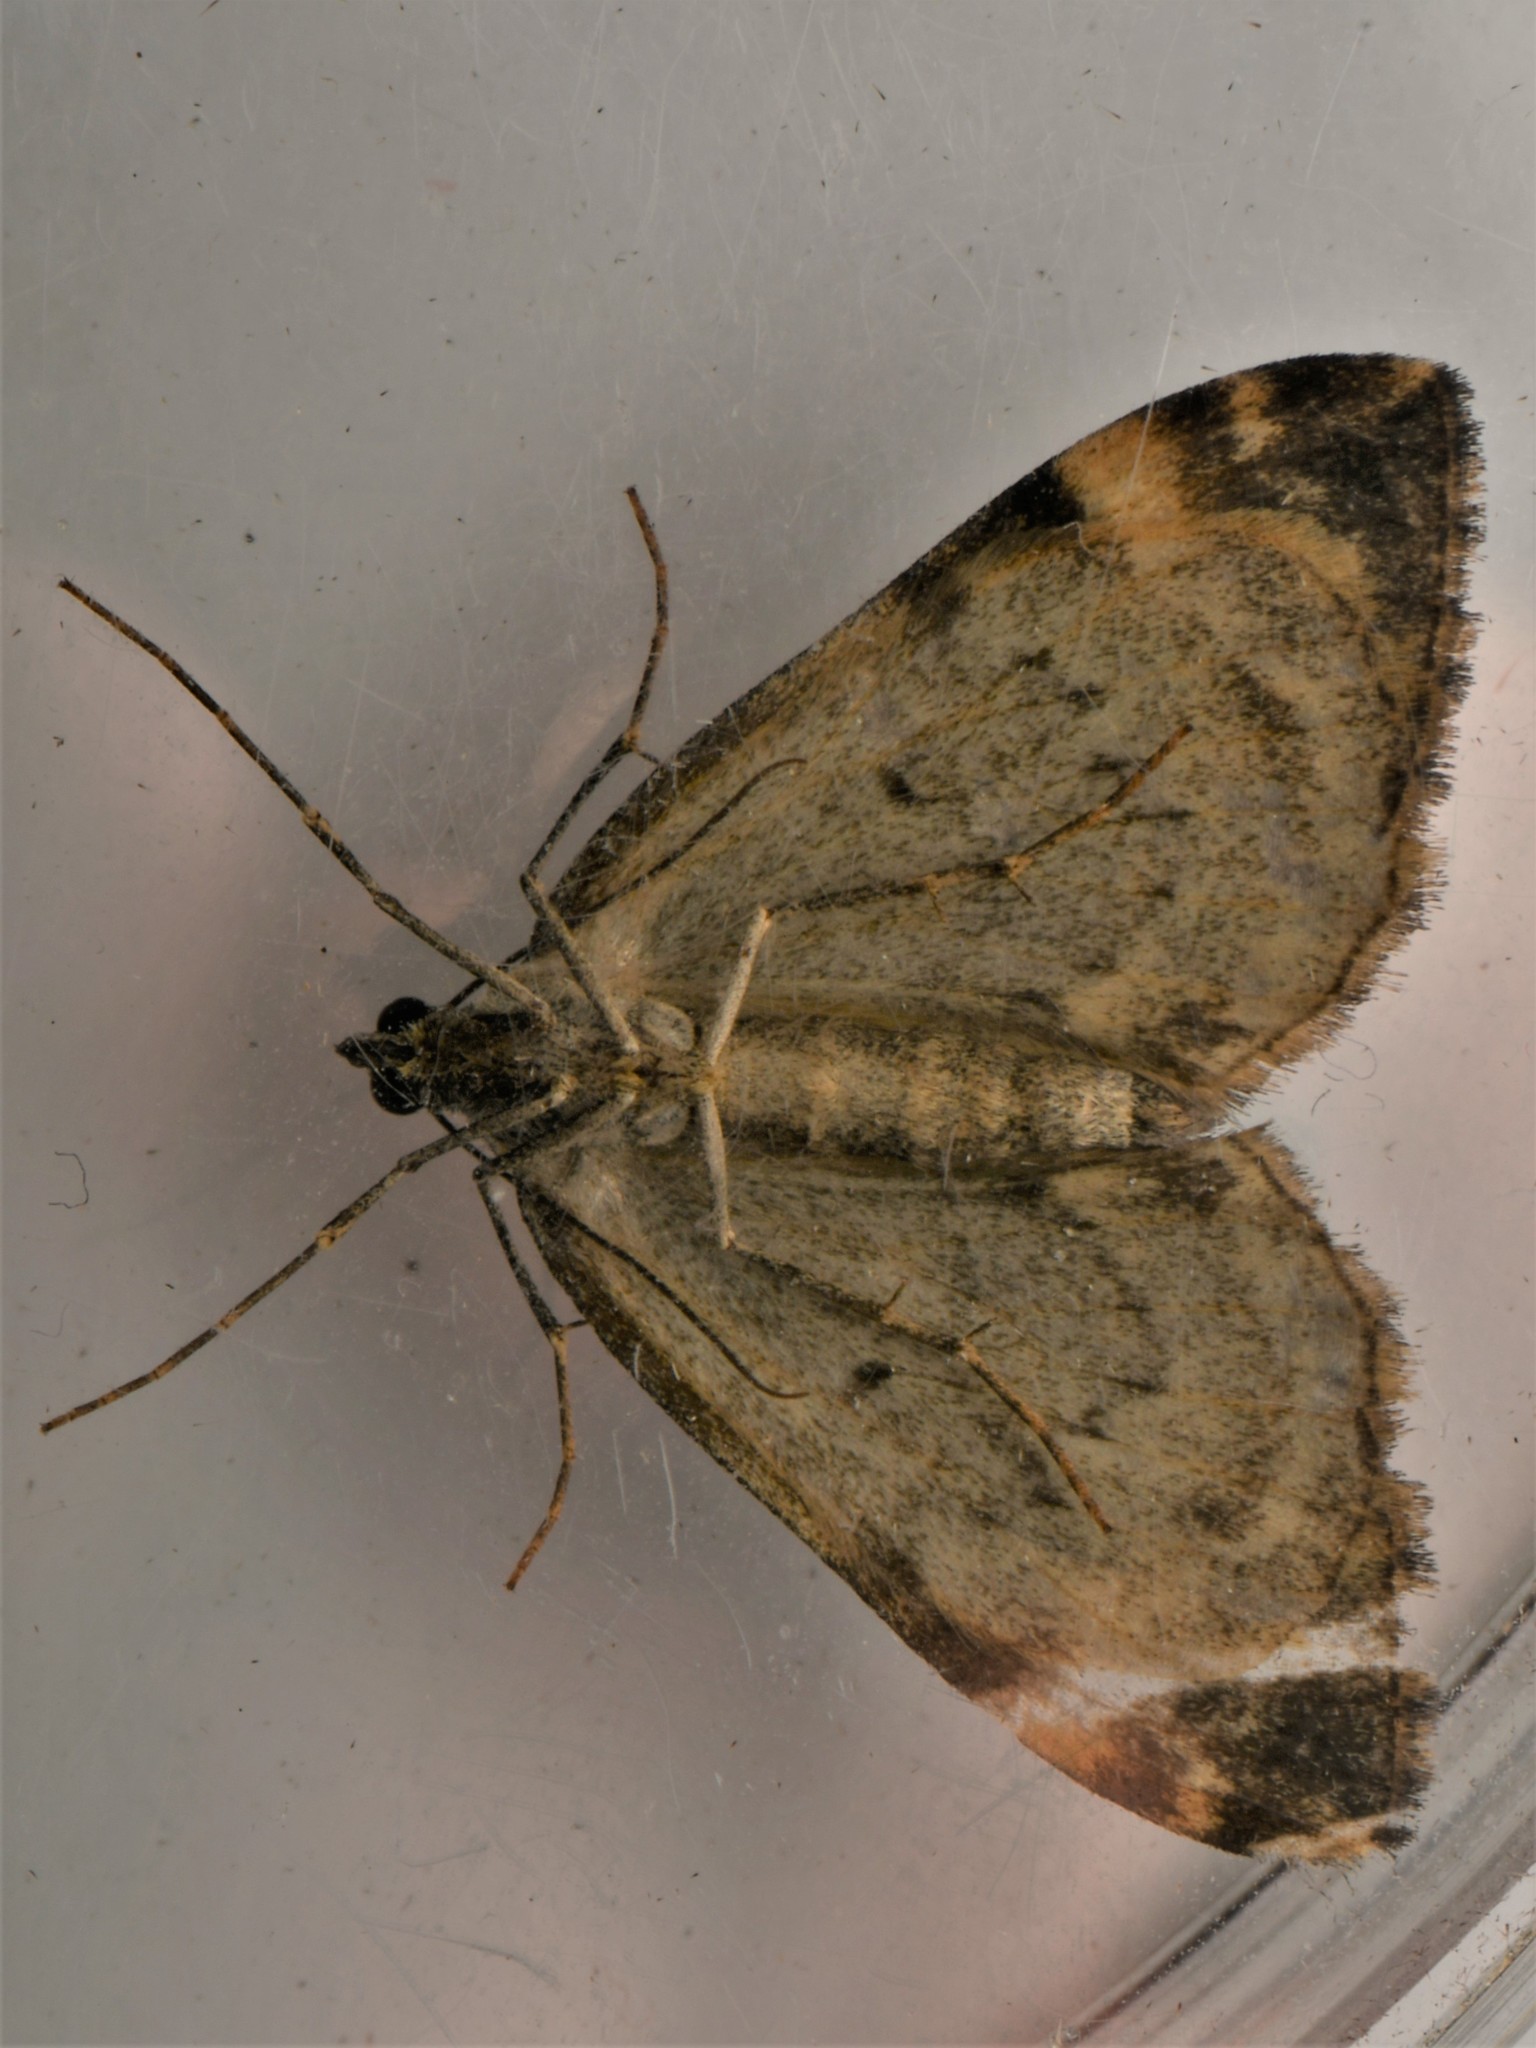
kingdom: Animalia
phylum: Arthropoda
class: Insecta
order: Lepidoptera
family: Geometridae
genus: Dysstroma
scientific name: Dysstroma truncata
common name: Common marbled carpet
